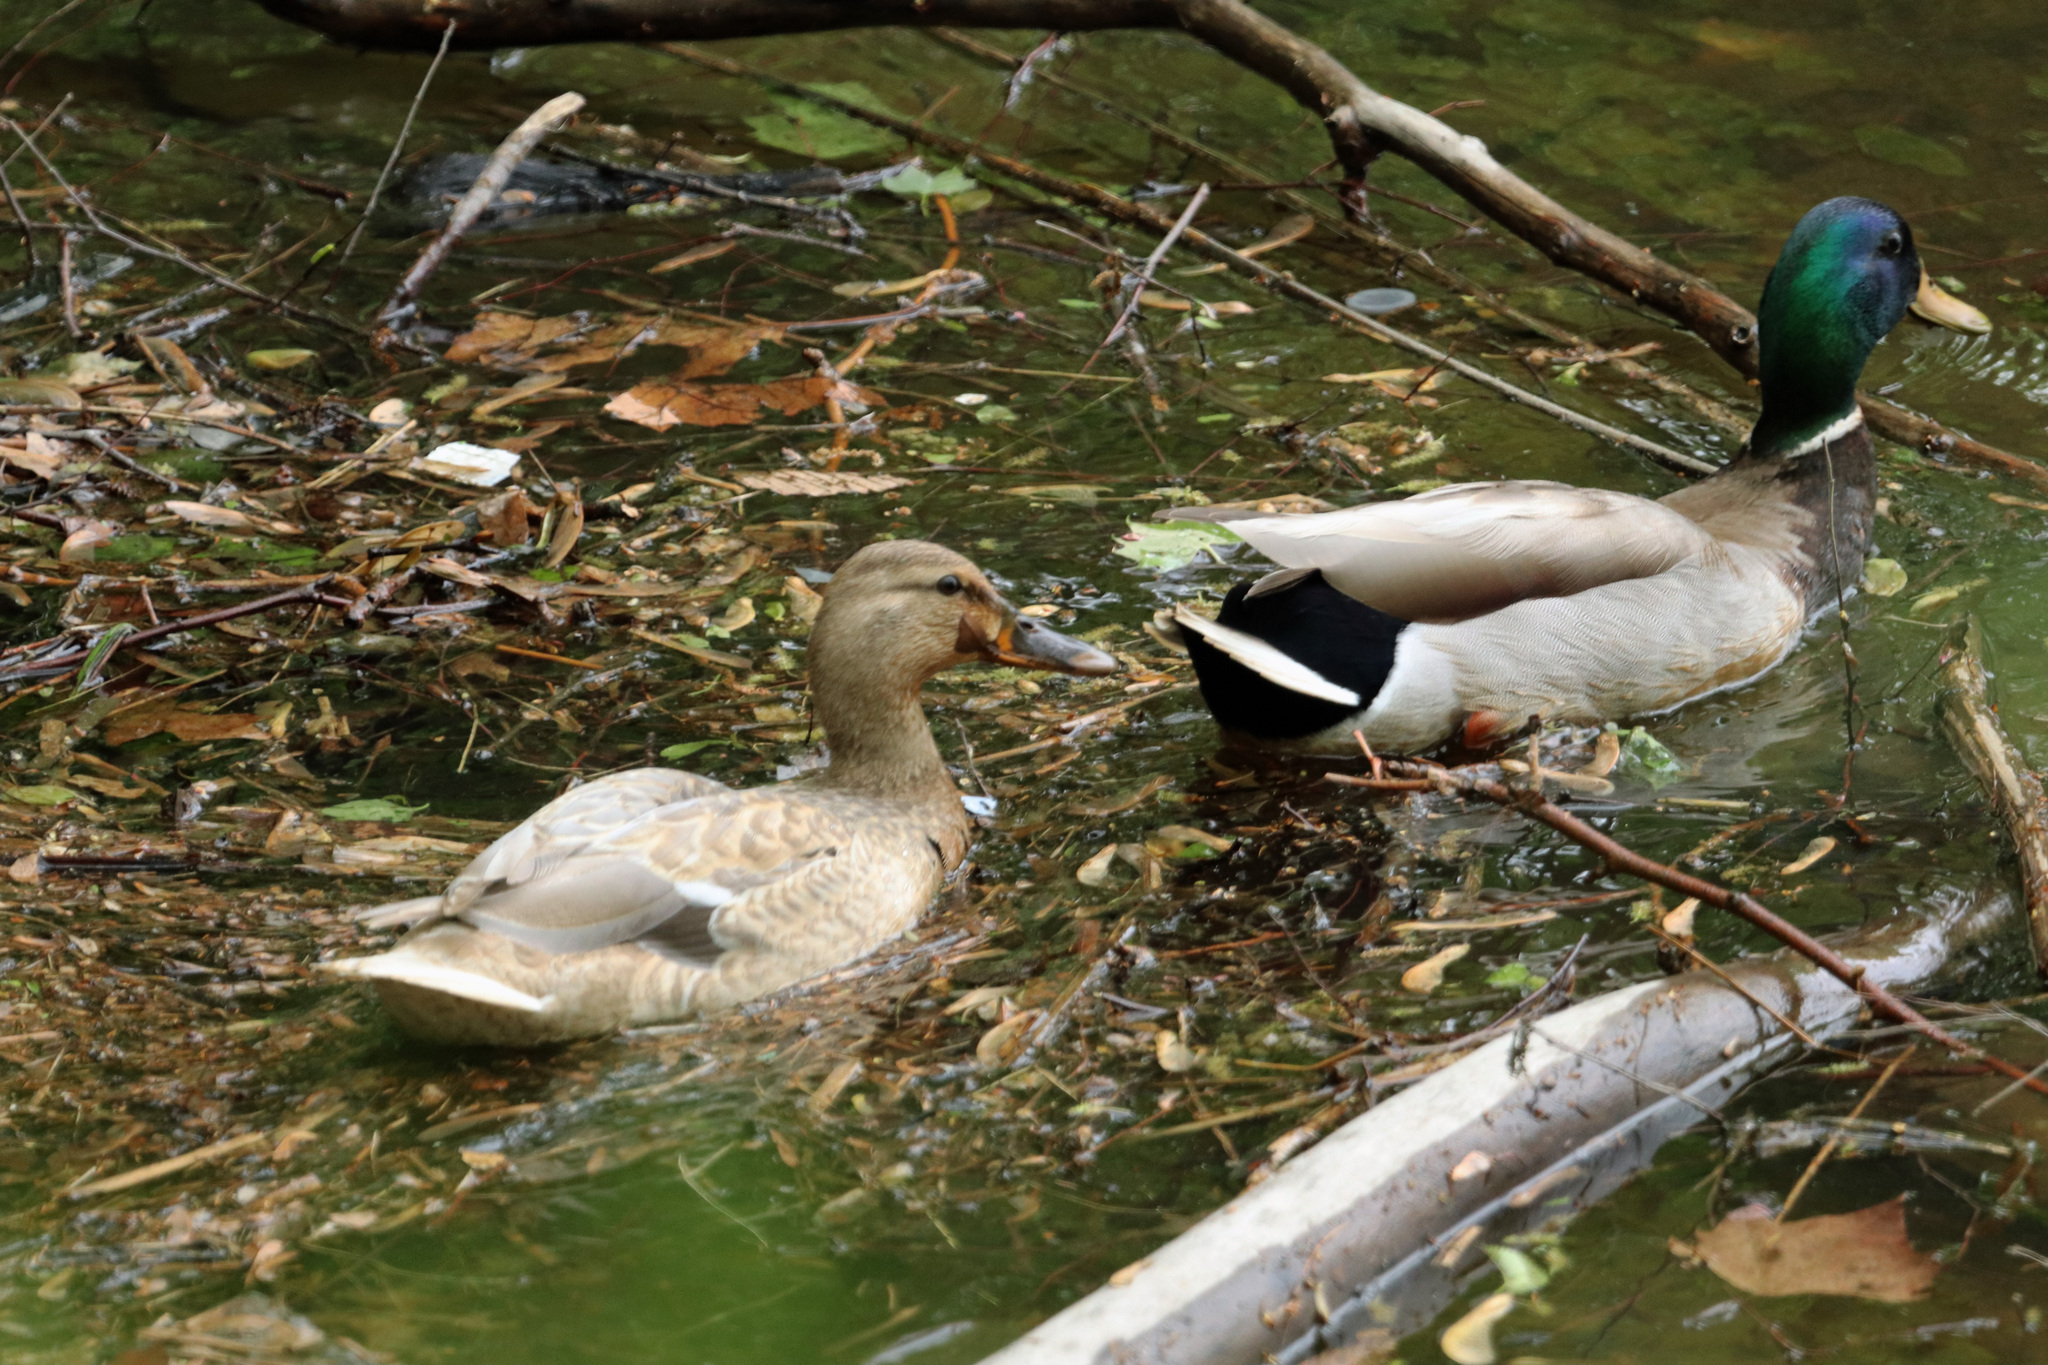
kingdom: Animalia
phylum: Chordata
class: Aves
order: Anseriformes
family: Anatidae
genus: Anas
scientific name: Anas platyrhynchos
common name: Mallard
